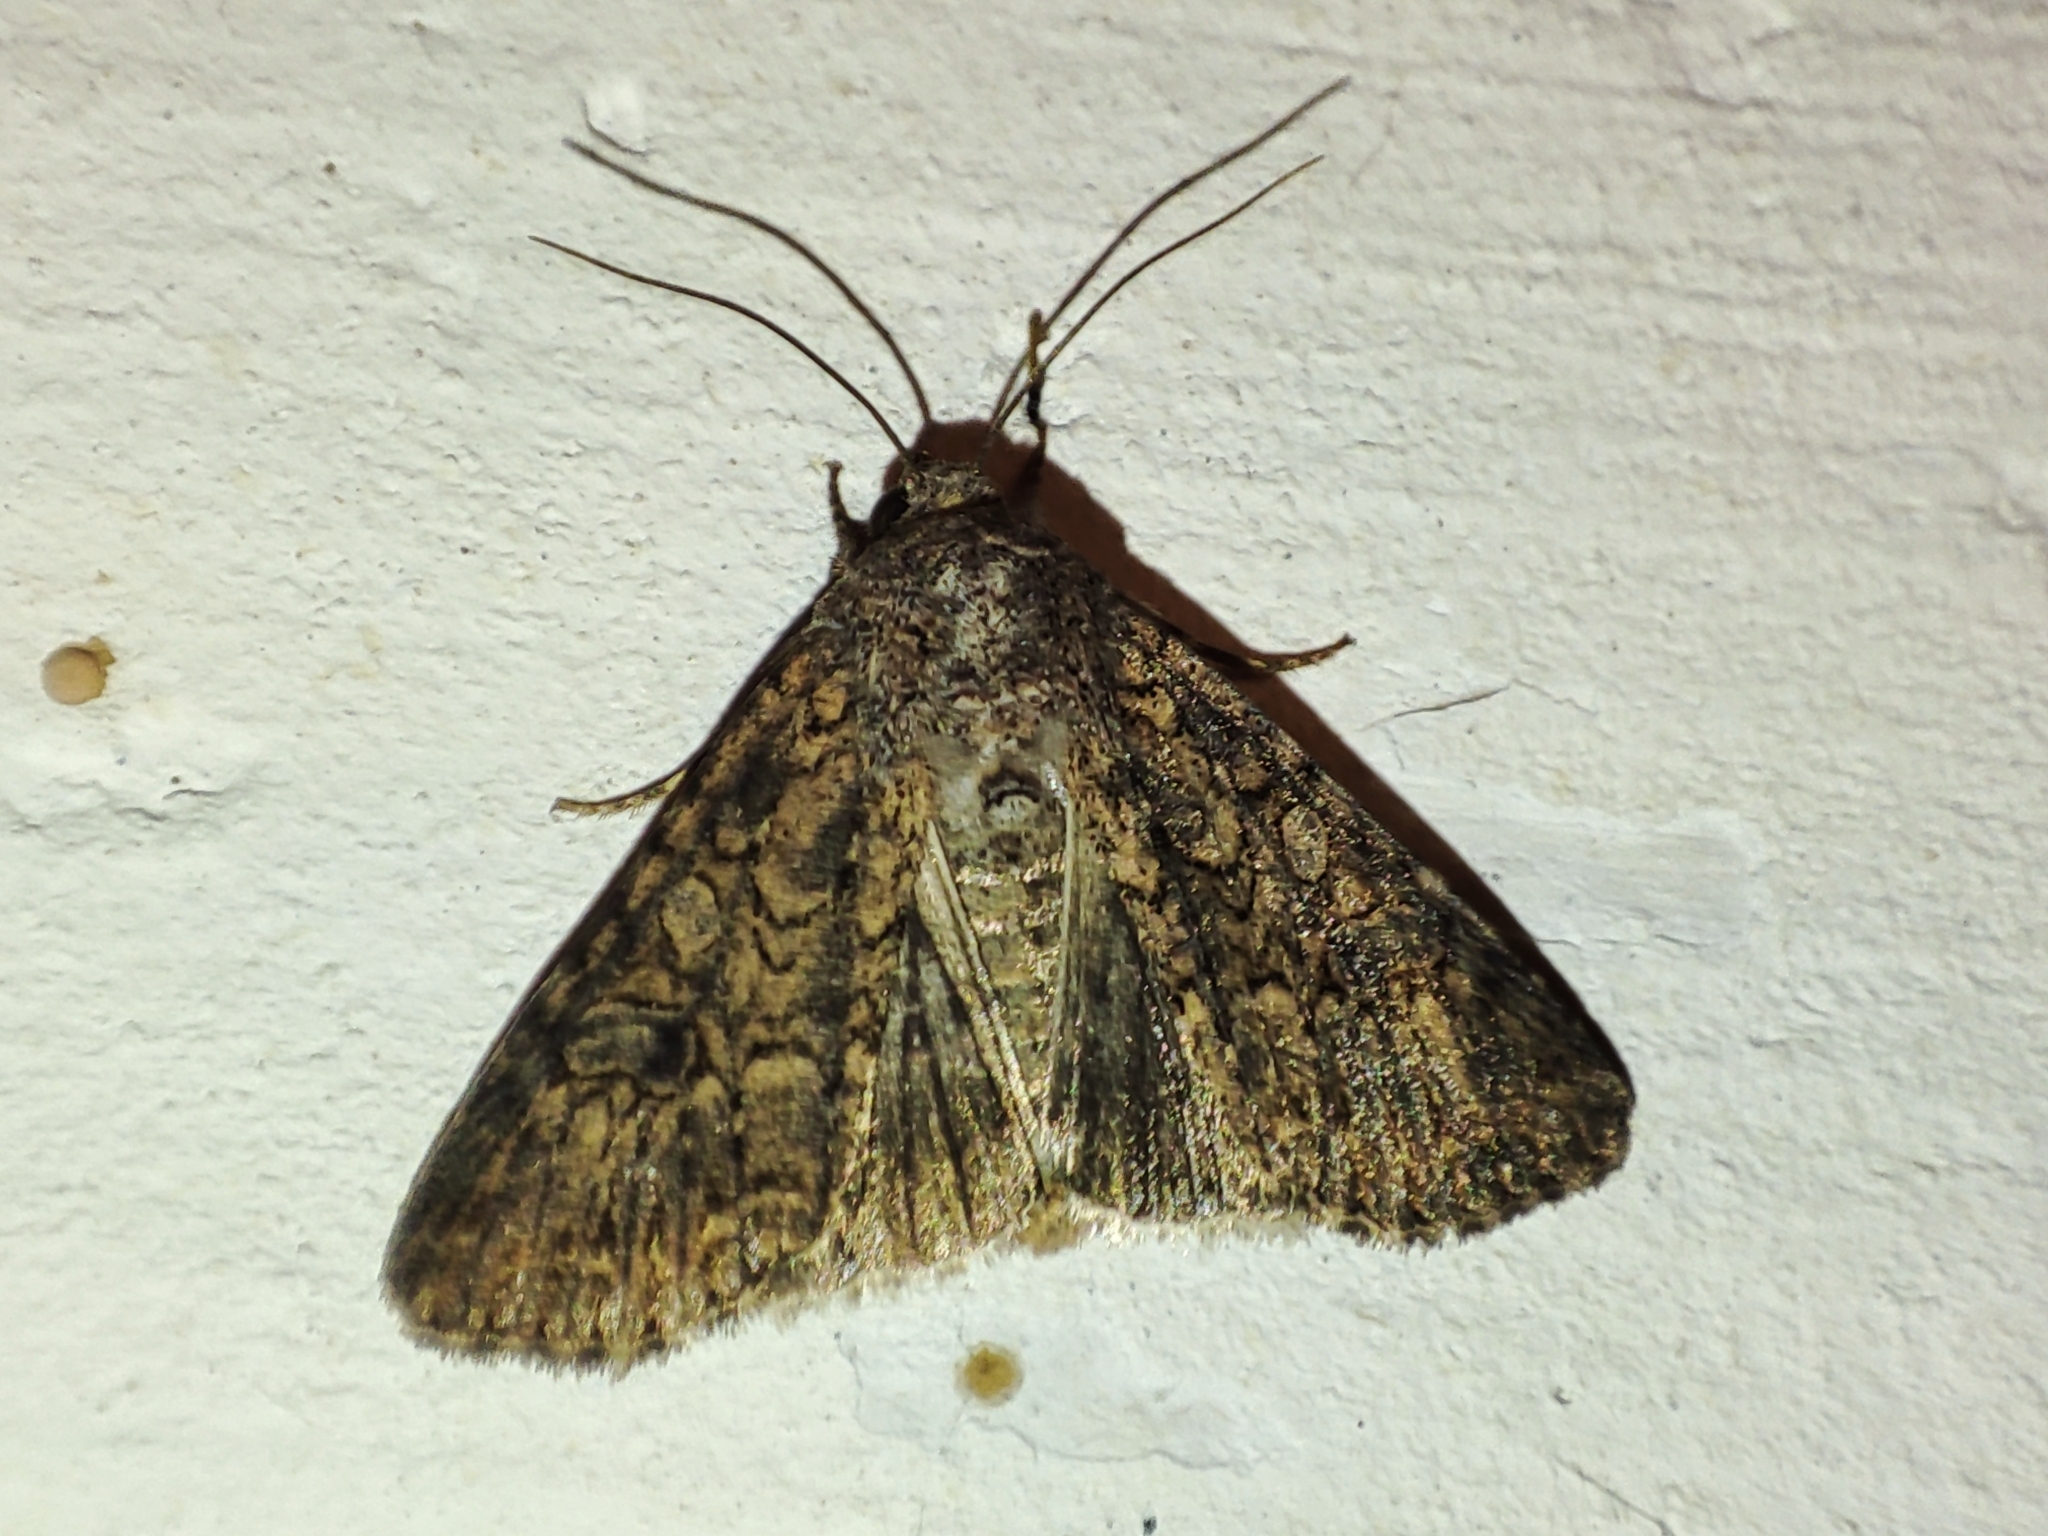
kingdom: Animalia
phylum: Arthropoda
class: Insecta
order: Lepidoptera
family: Noctuidae
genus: Anarta
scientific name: Anarta trifolii
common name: Clover cutworm moth
